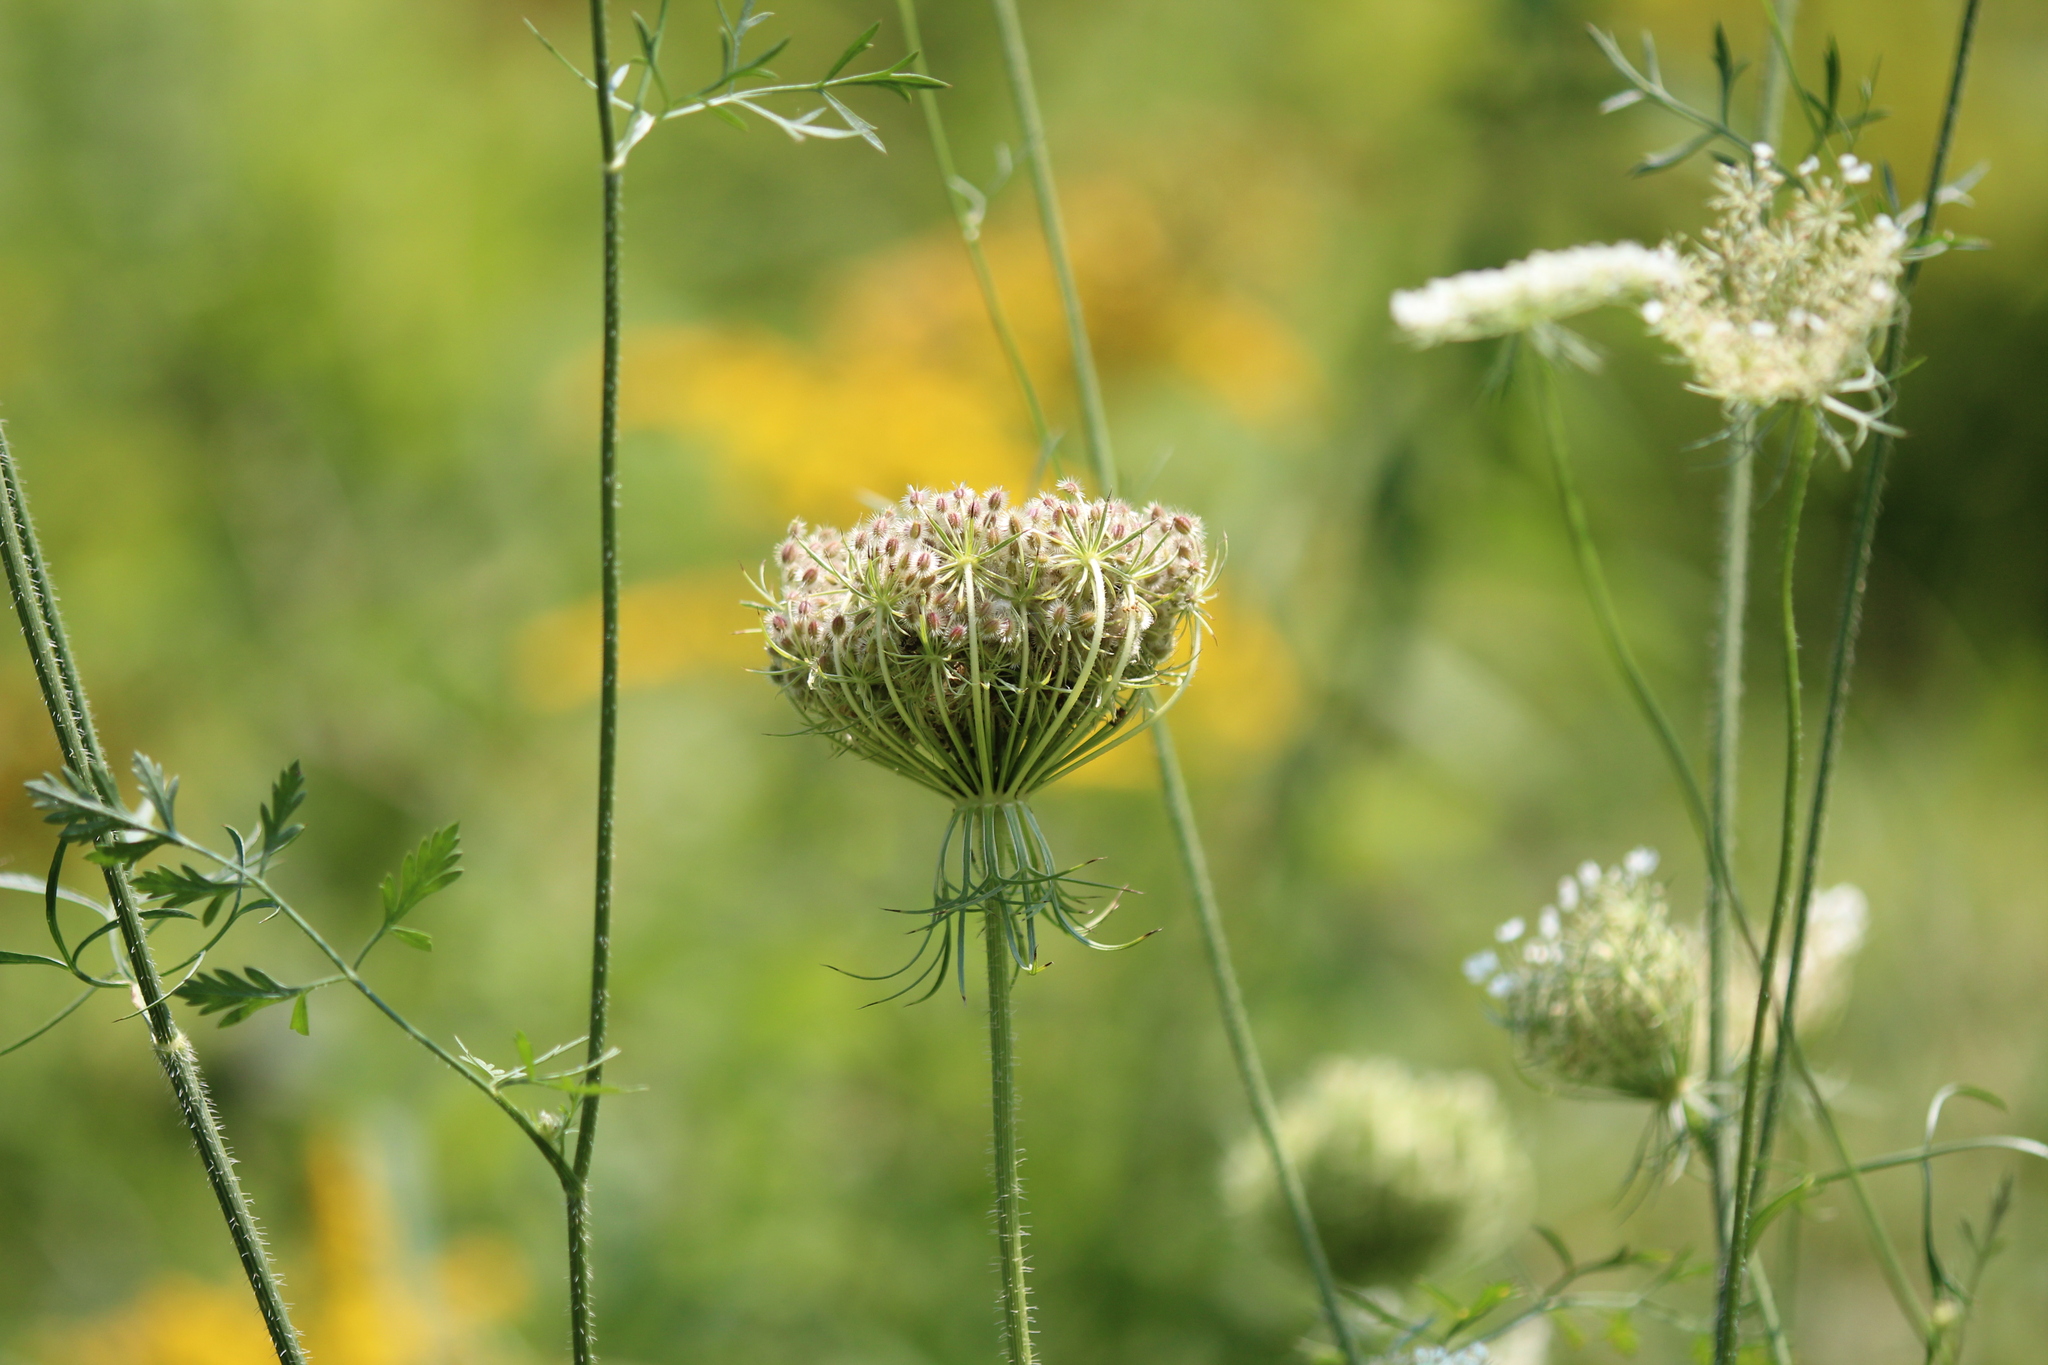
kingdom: Plantae
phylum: Tracheophyta
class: Magnoliopsida
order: Apiales
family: Apiaceae
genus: Daucus
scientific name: Daucus carota
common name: Wild carrot
